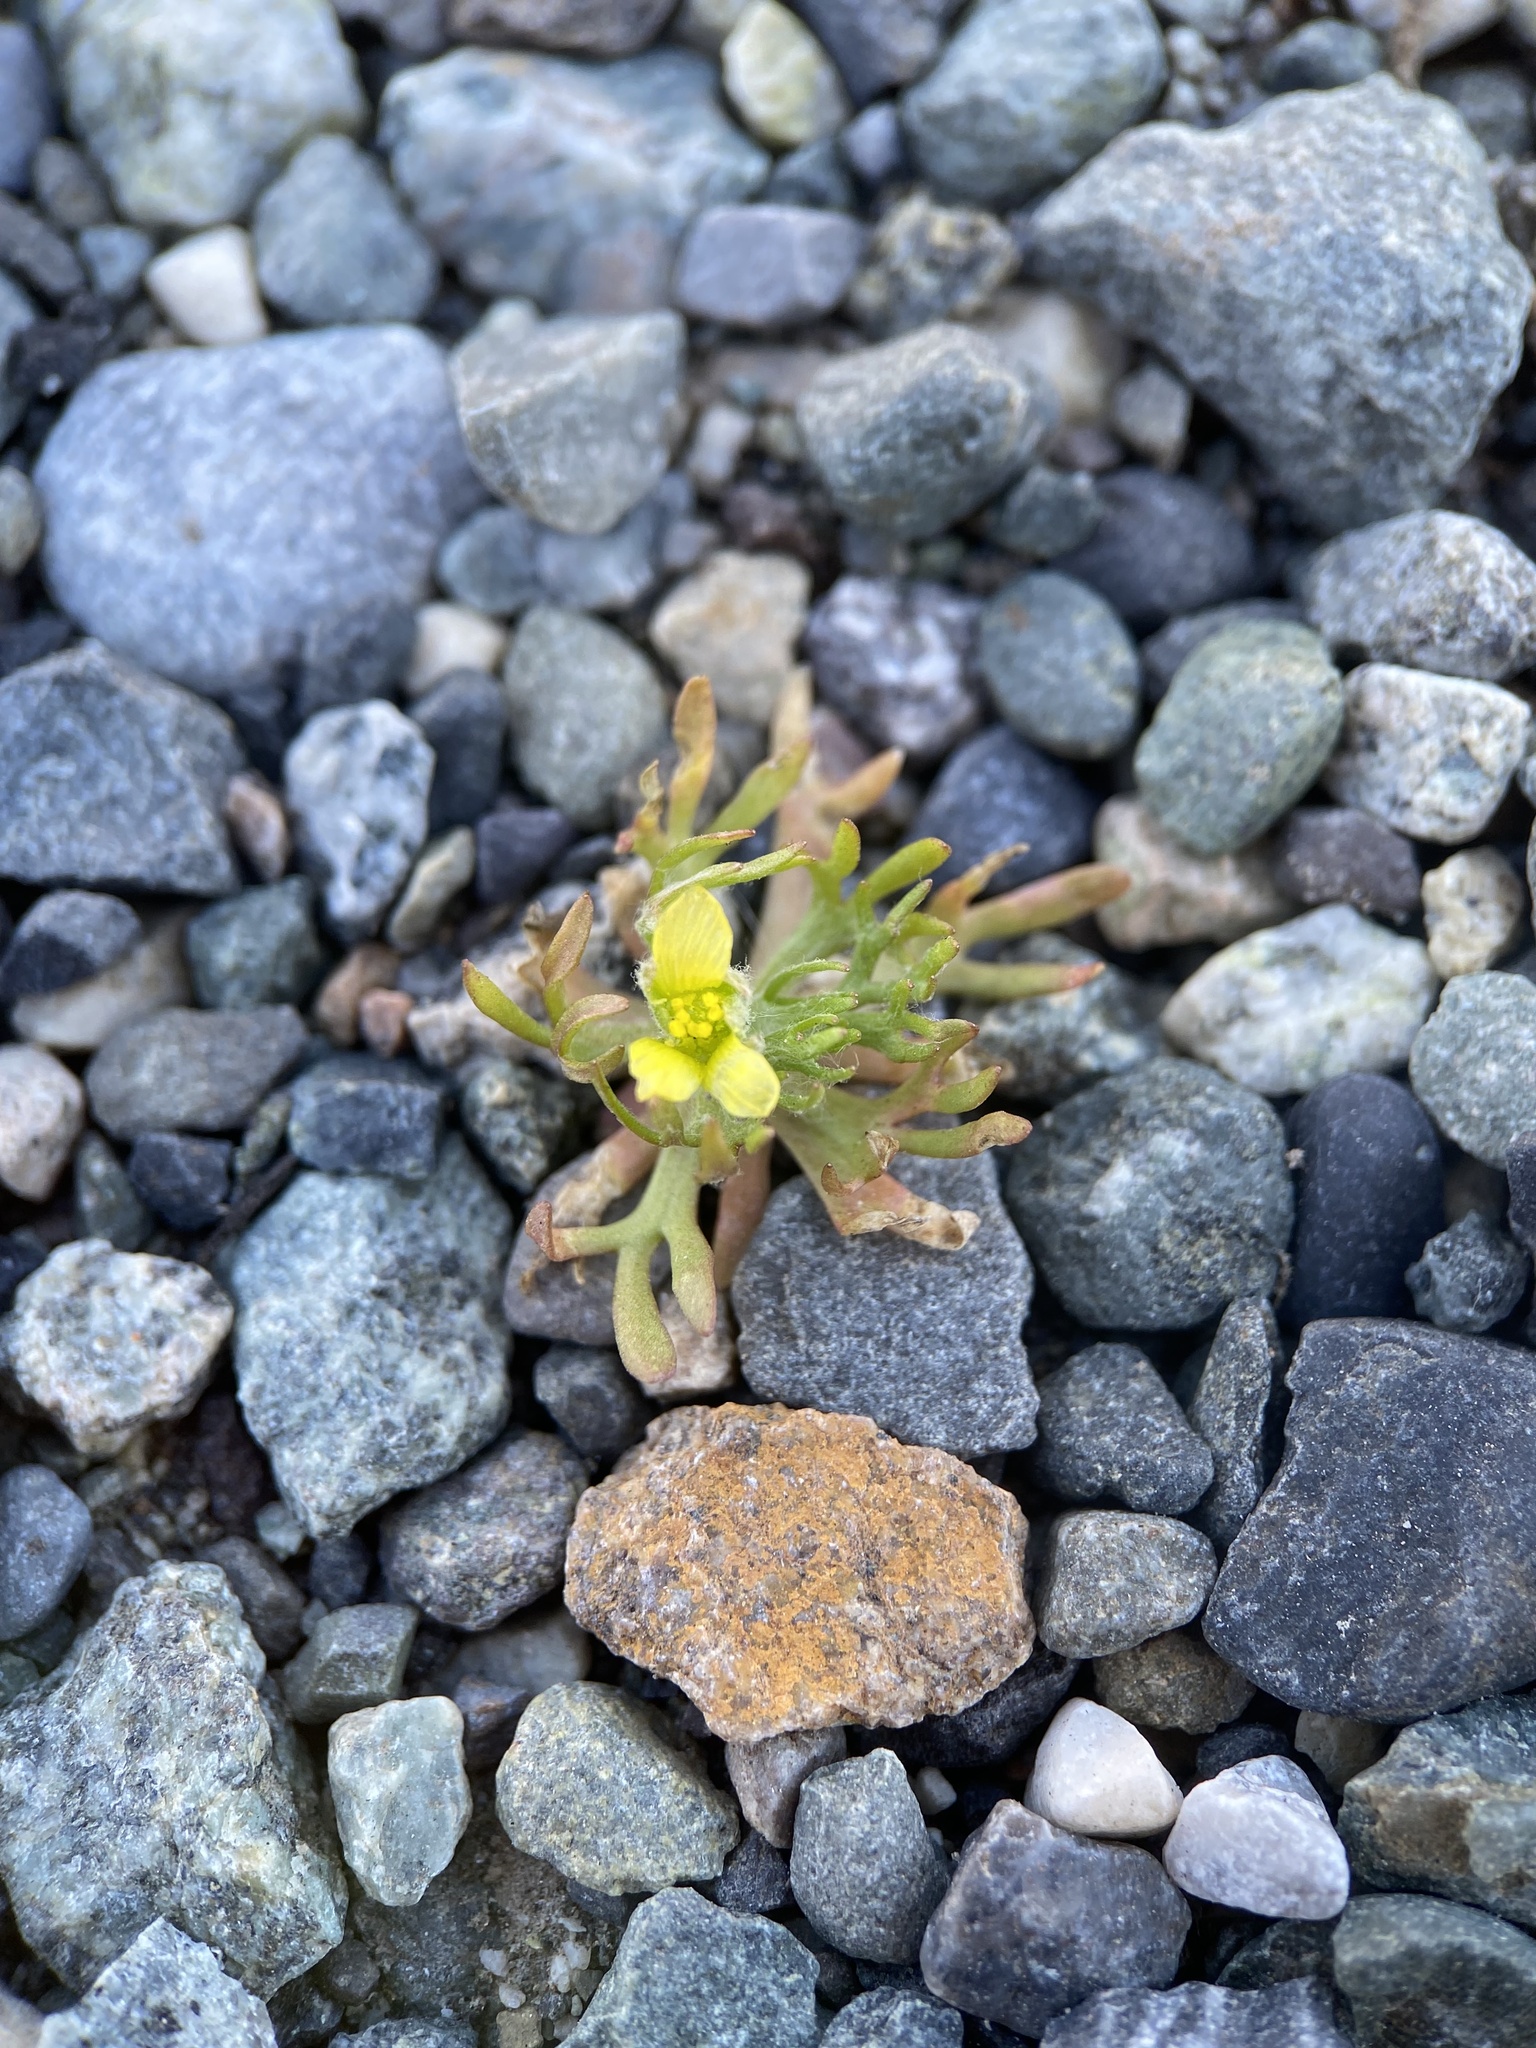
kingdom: Plantae
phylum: Tracheophyta
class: Magnoliopsida
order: Ranunculales
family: Ranunculaceae
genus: Ceratocephala
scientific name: Ceratocephala orthoceras
